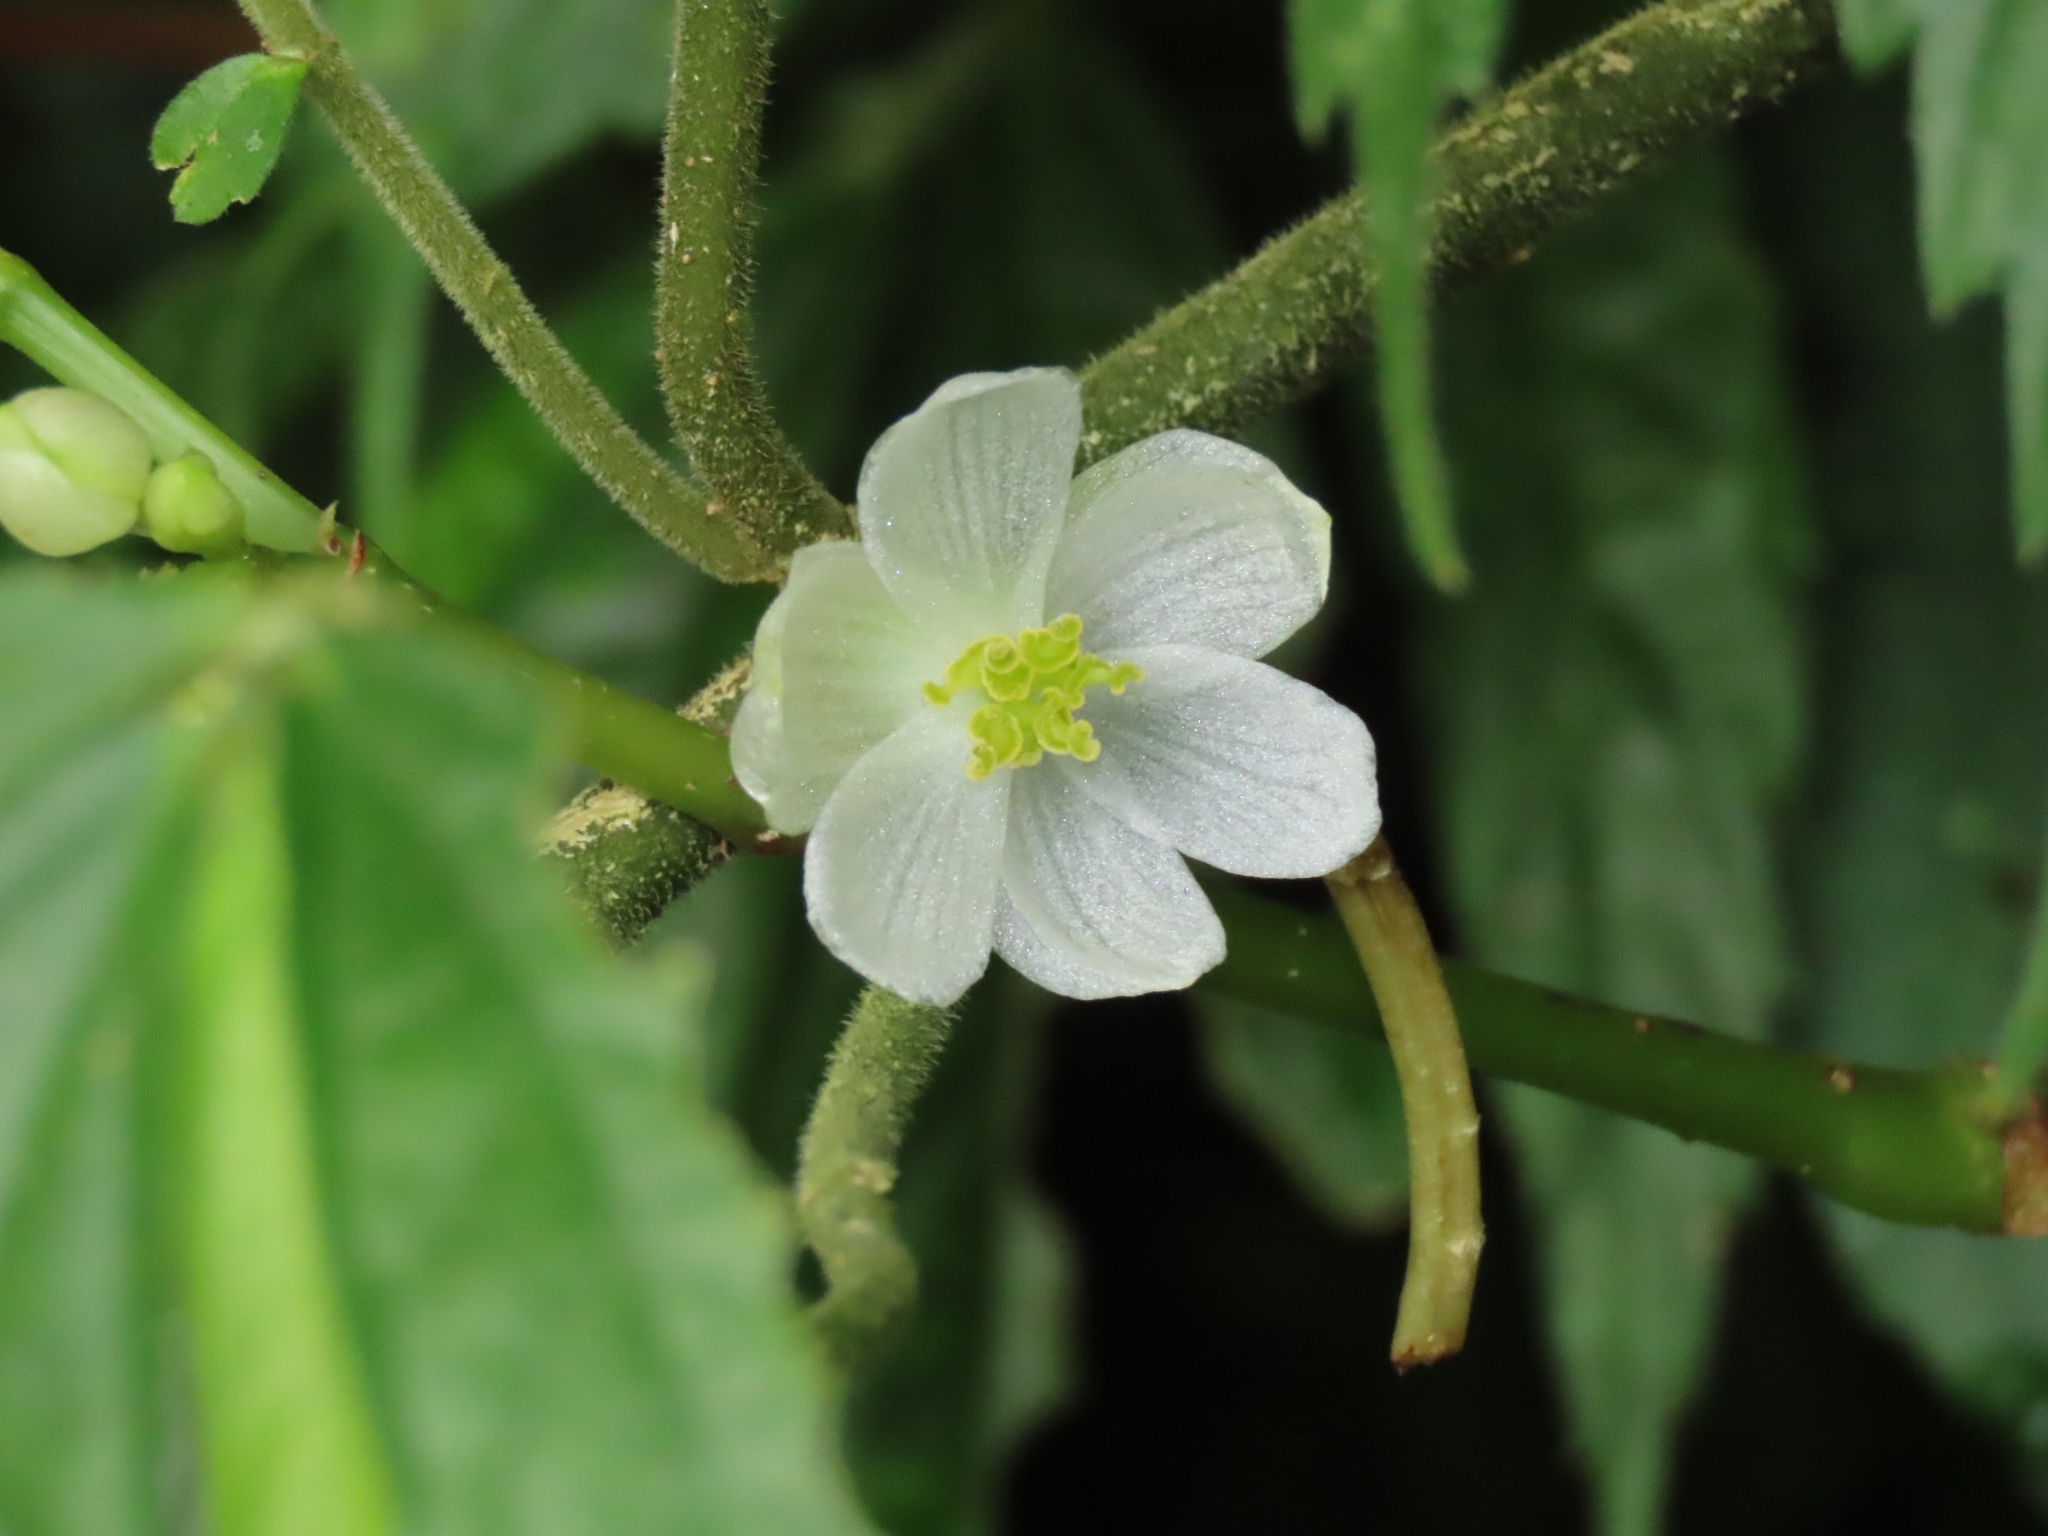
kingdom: Plantae
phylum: Tracheophyta
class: Magnoliopsida
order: Cucurbitales
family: Begoniaceae
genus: Begonia
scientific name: Begonia longifolia
